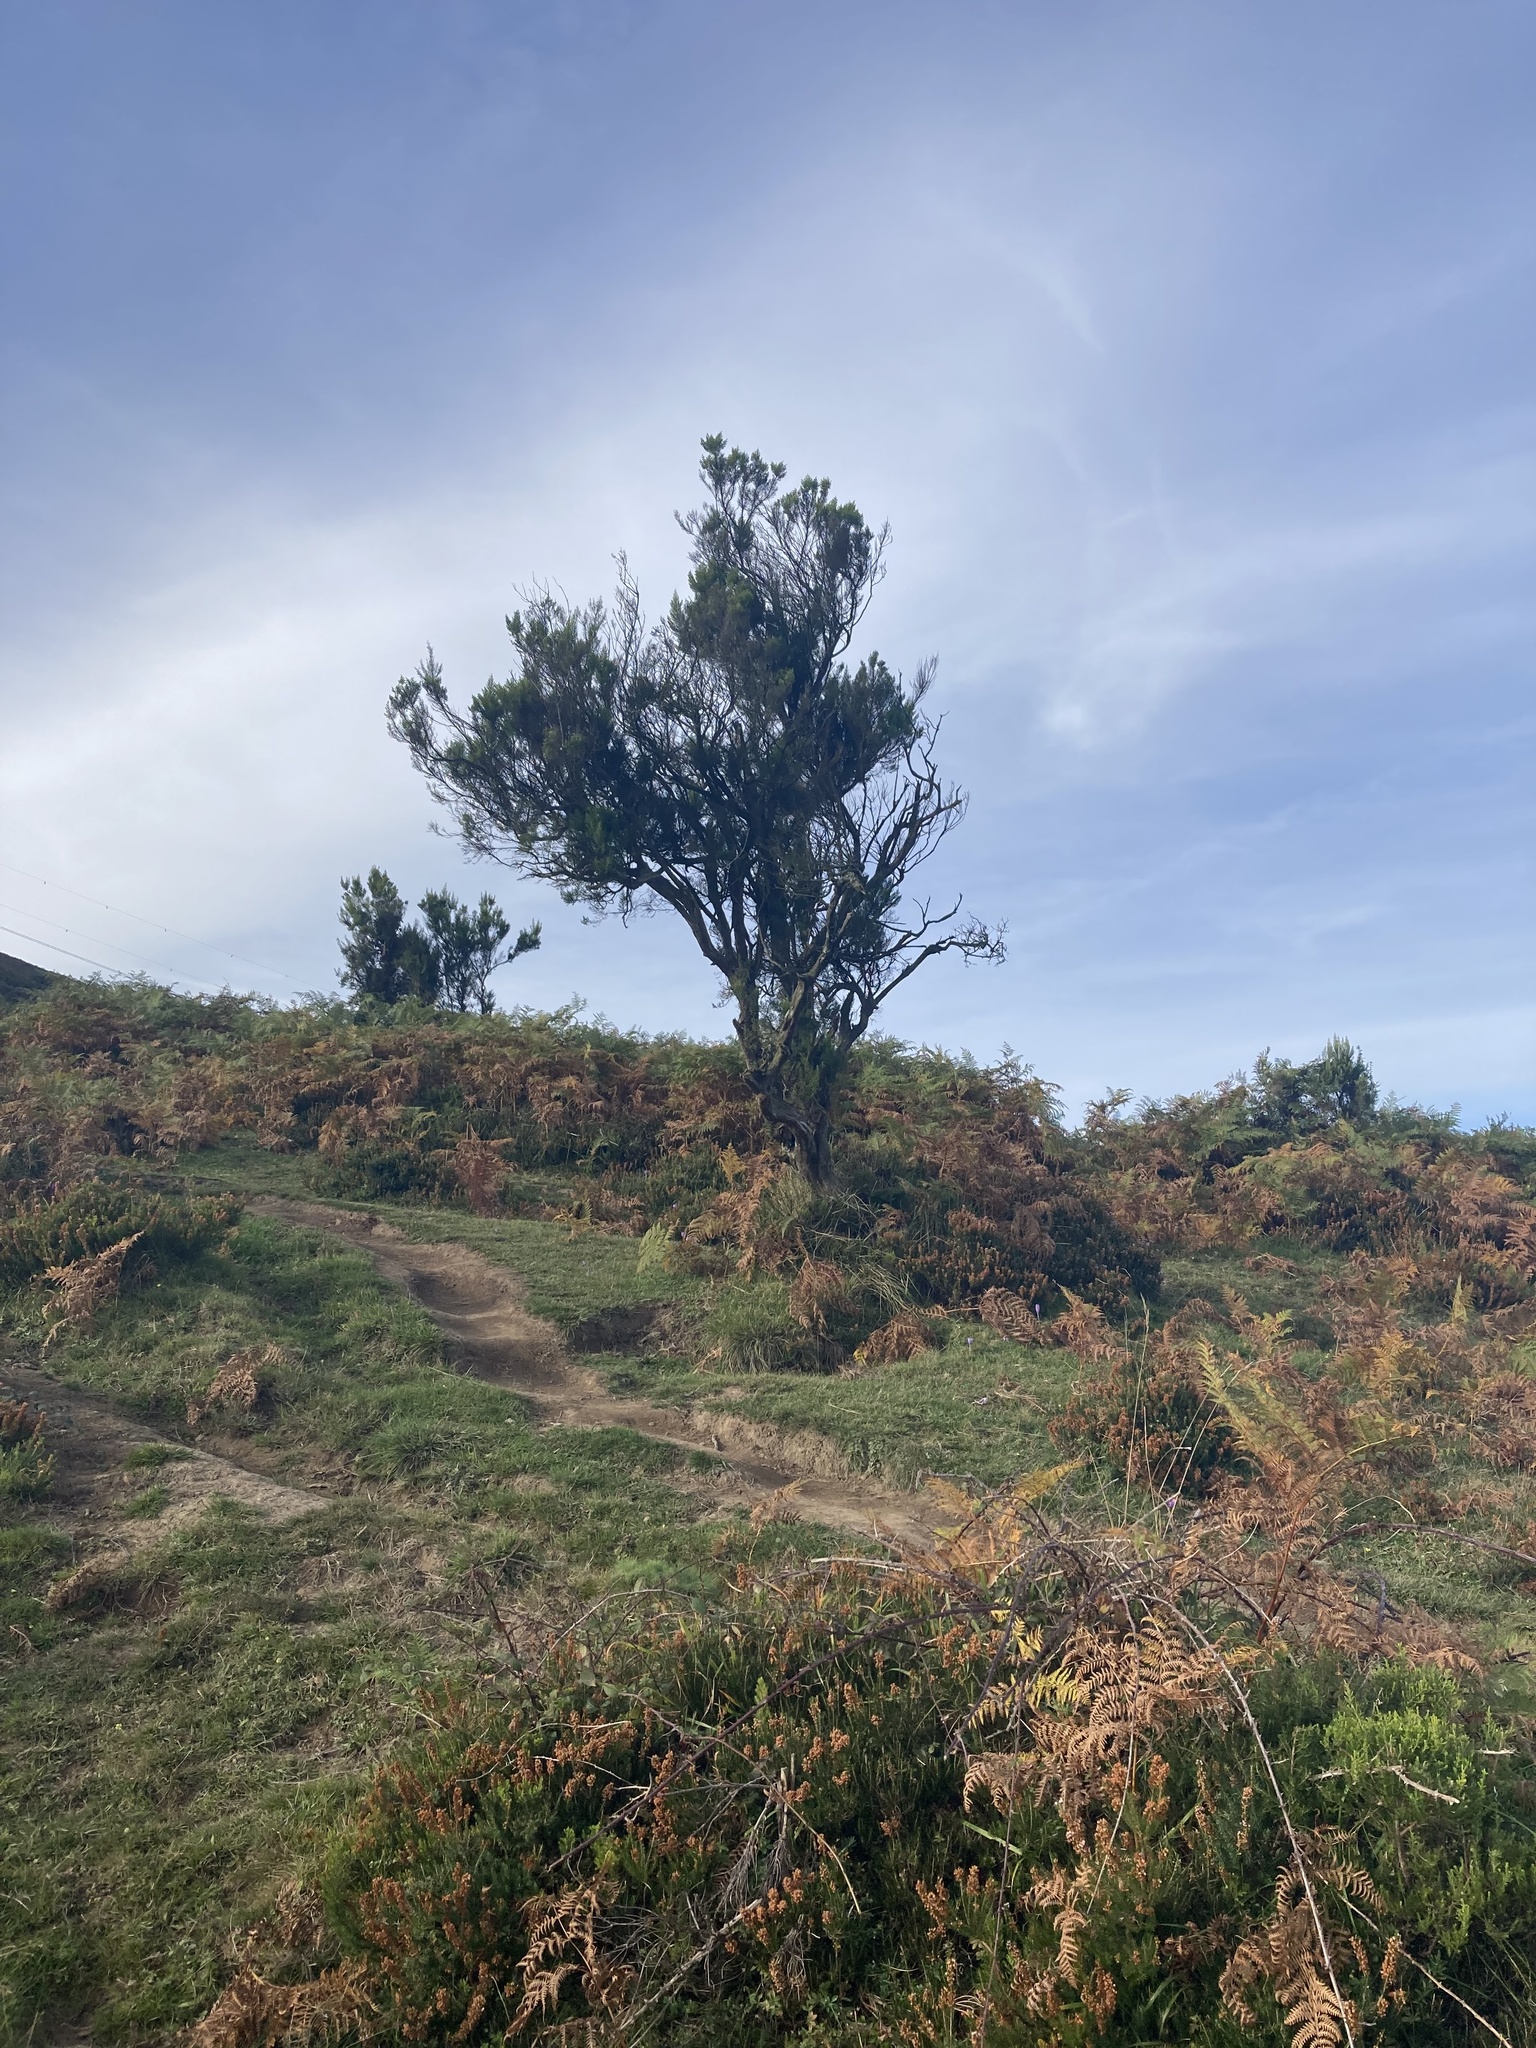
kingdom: Plantae
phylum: Tracheophyta
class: Magnoliopsida
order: Ericales
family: Ericaceae
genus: Erica
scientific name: Erica arborea
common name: Tree heath
